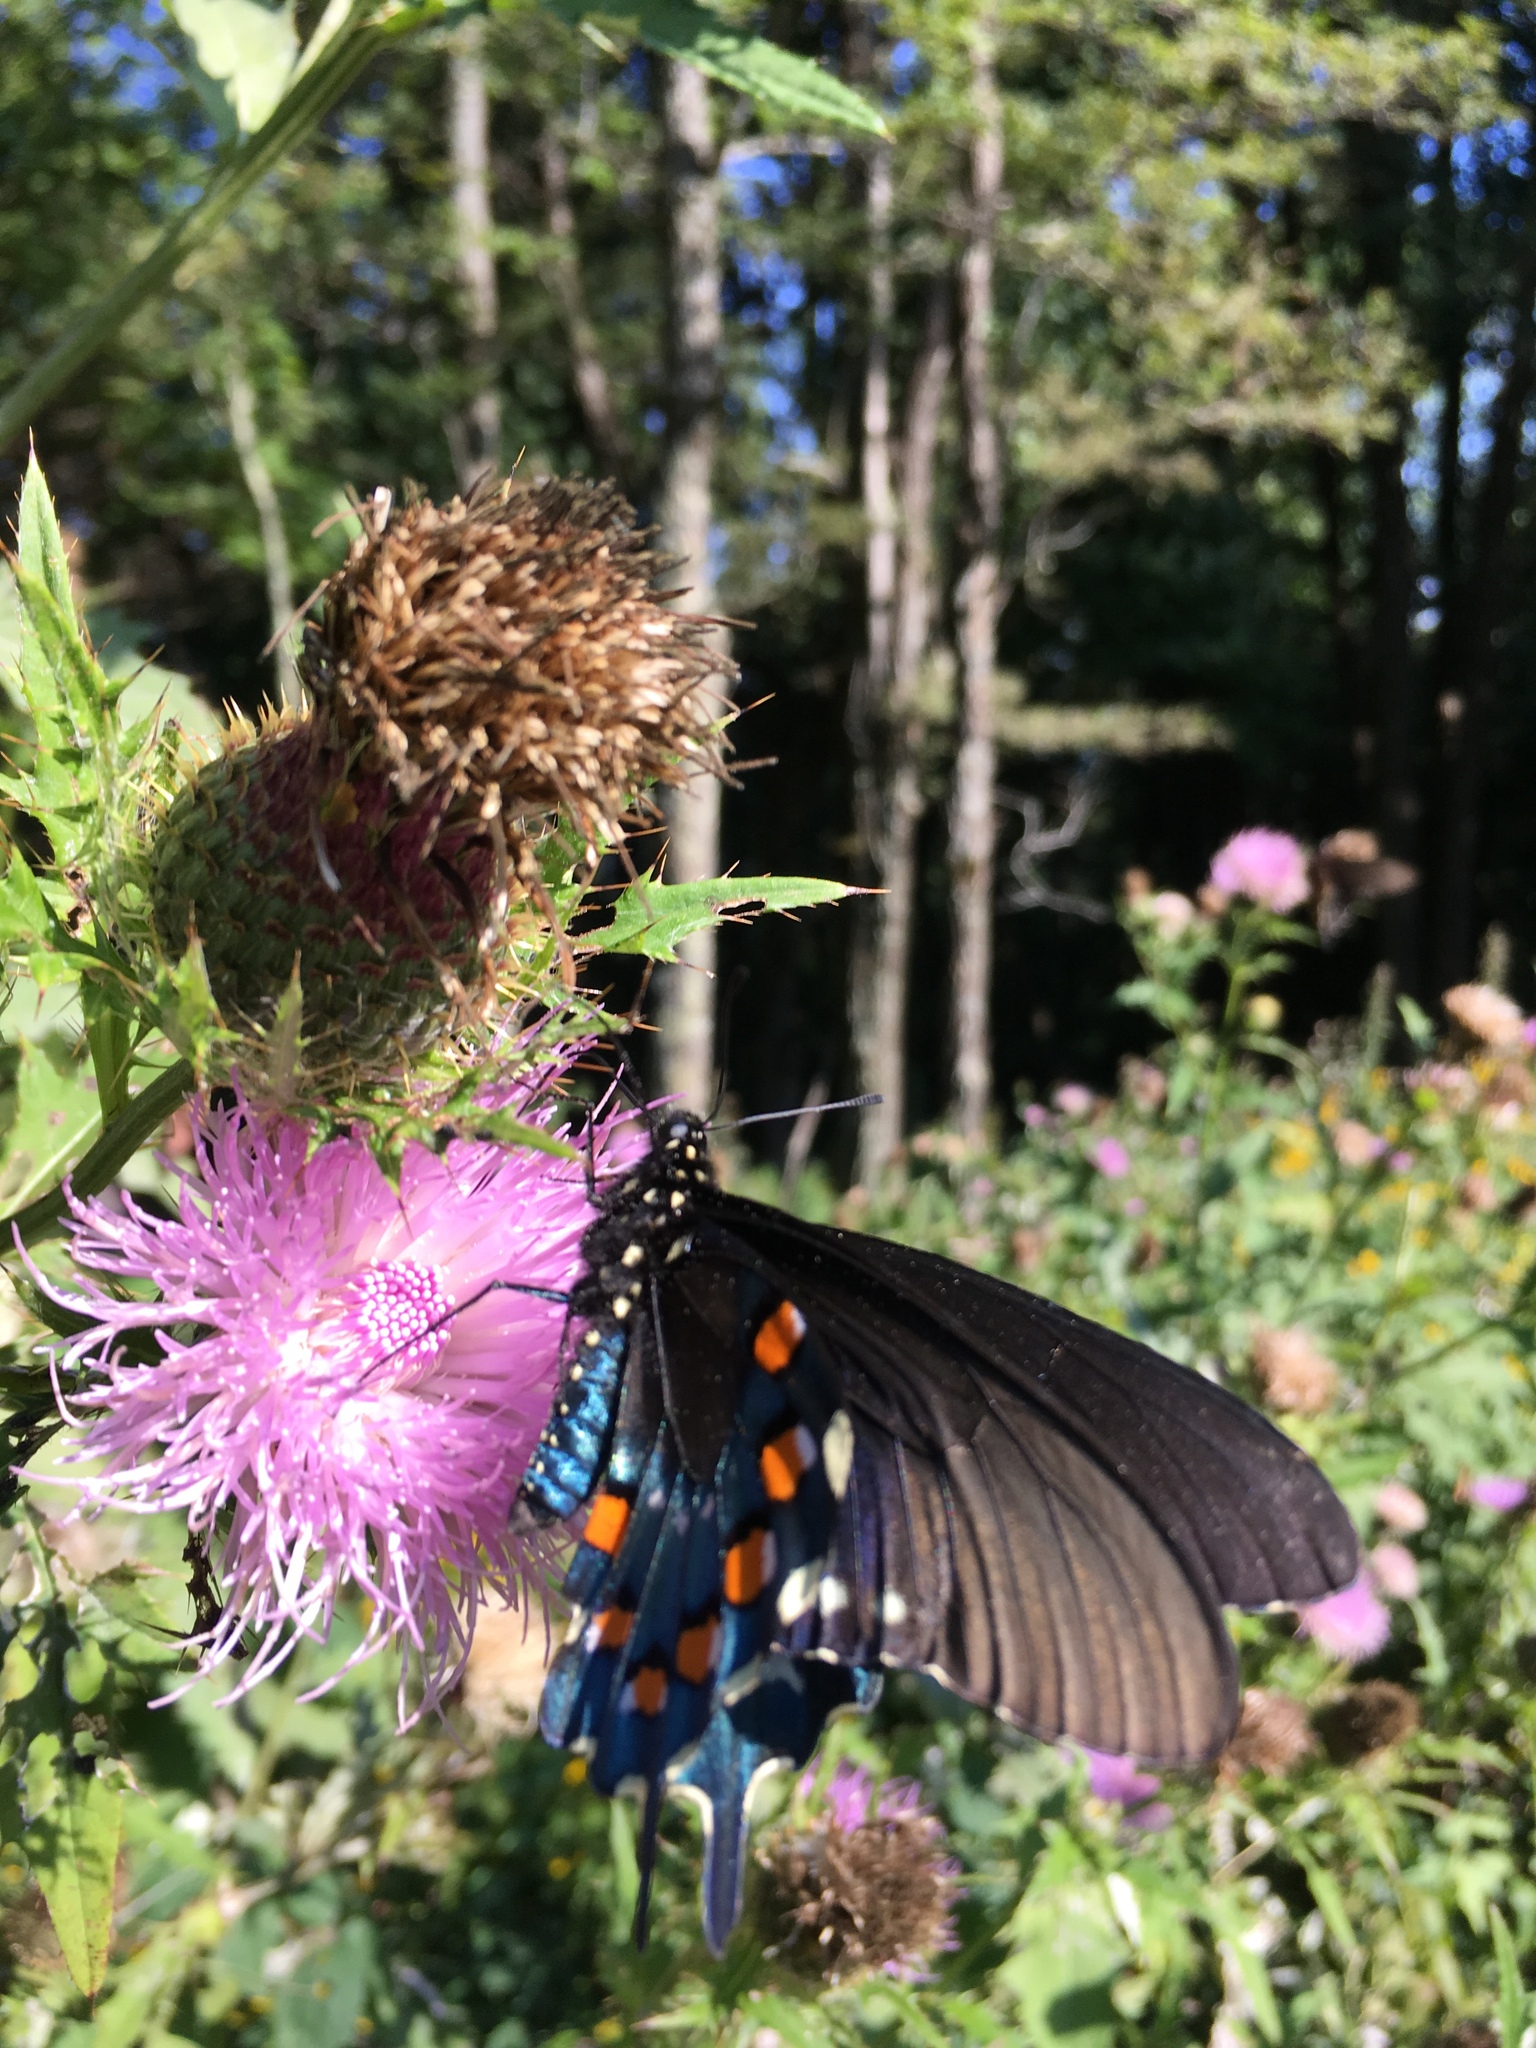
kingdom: Animalia
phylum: Arthropoda
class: Insecta
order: Lepidoptera
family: Papilionidae
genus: Battus
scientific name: Battus philenor
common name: Pipevine swallowtail
